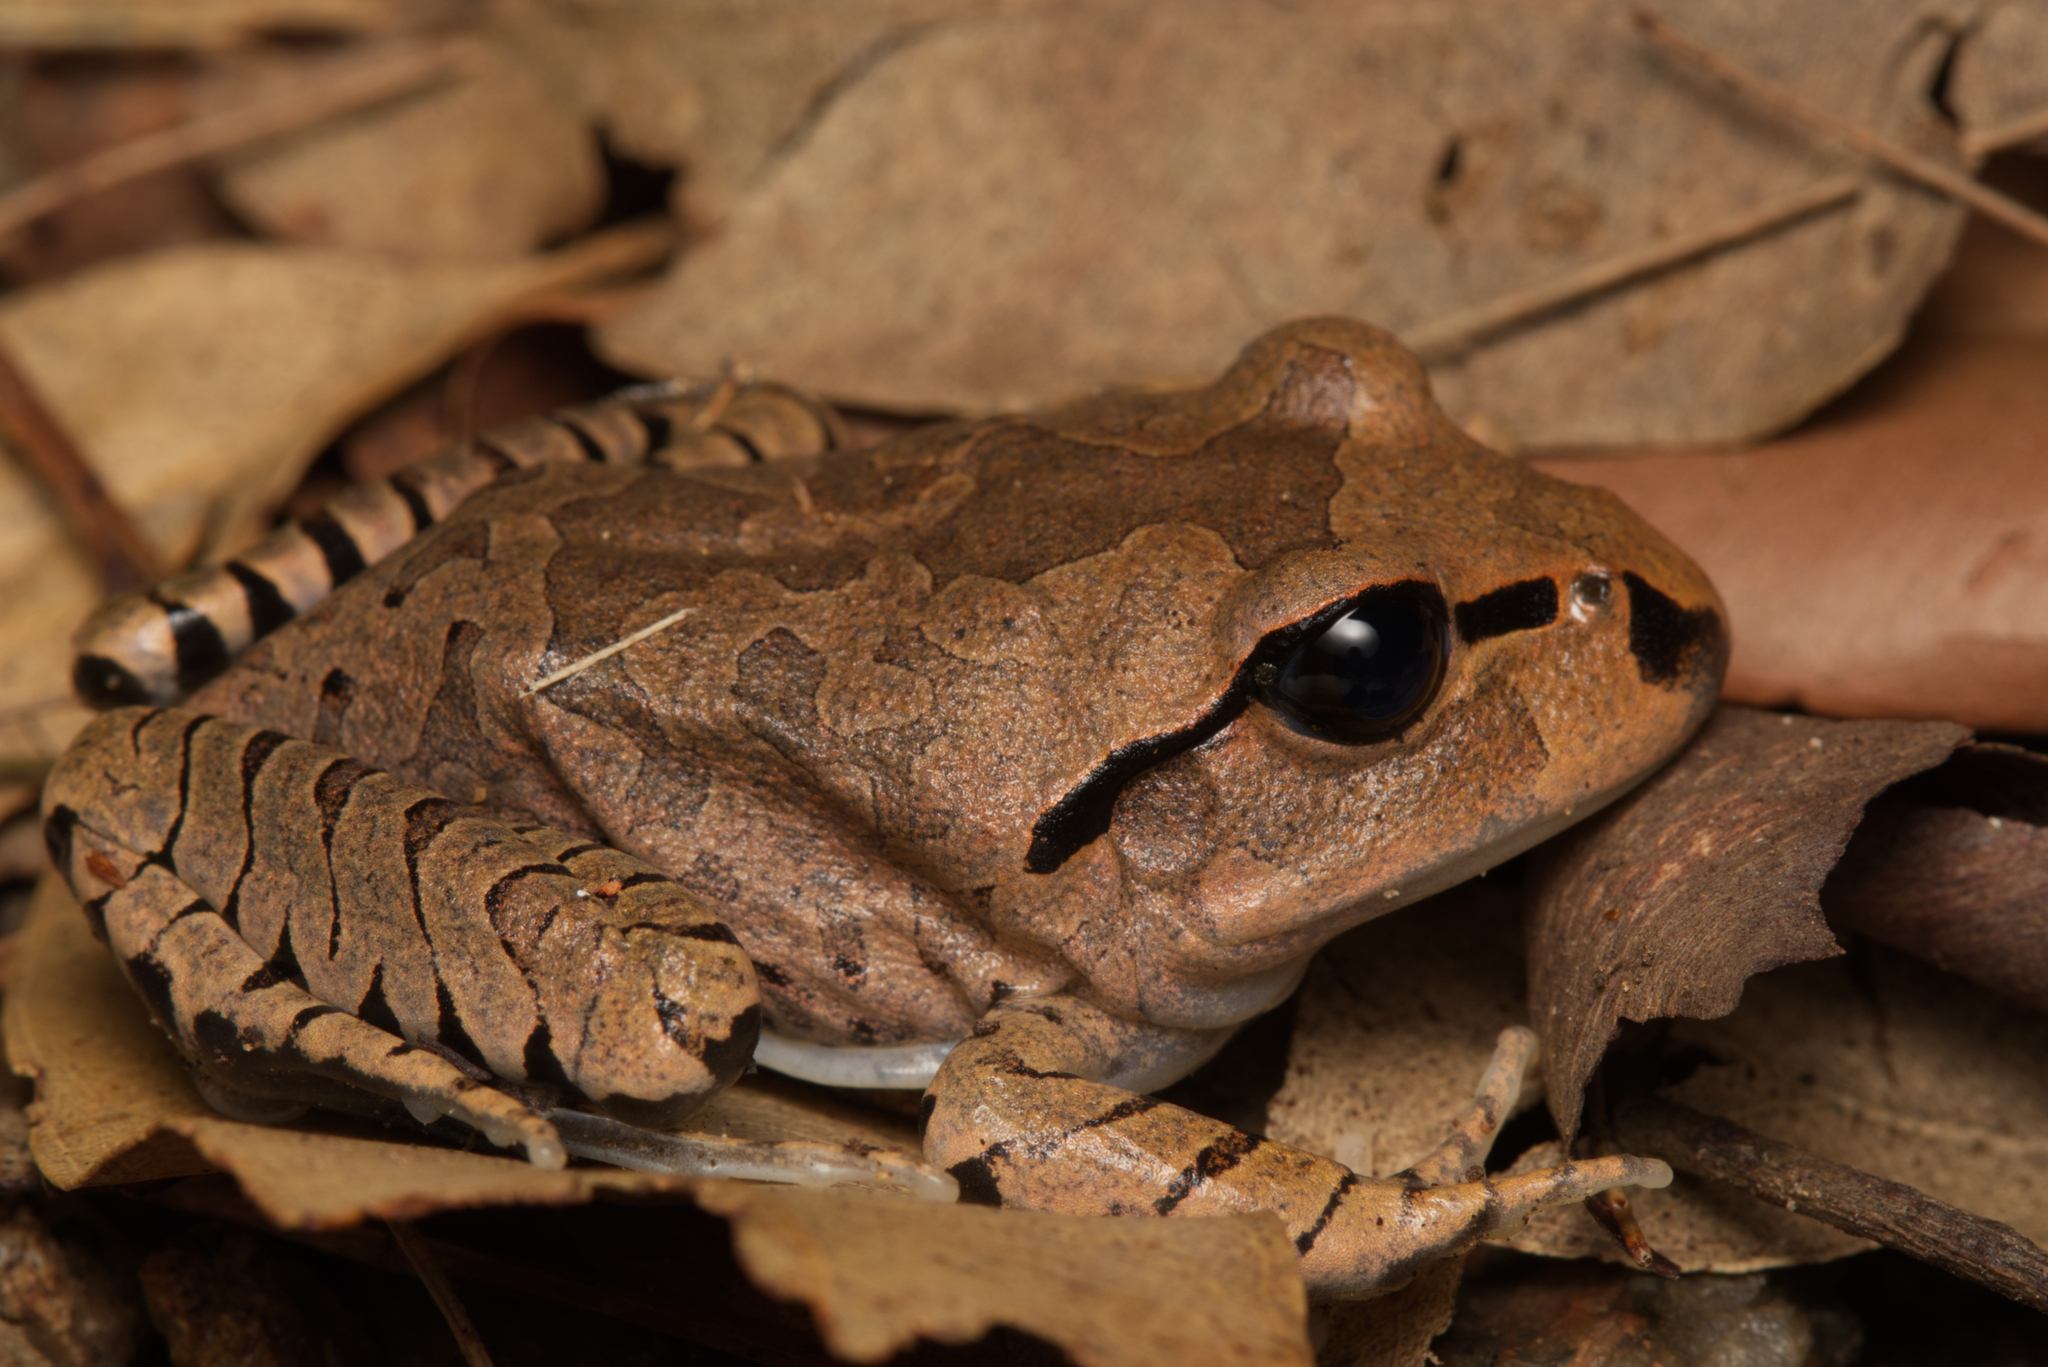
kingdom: Animalia
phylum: Chordata
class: Amphibia
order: Anura
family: Myobatrachidae
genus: Mixophyes
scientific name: Mixophyes fasciolatus
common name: Great barred river-frog
